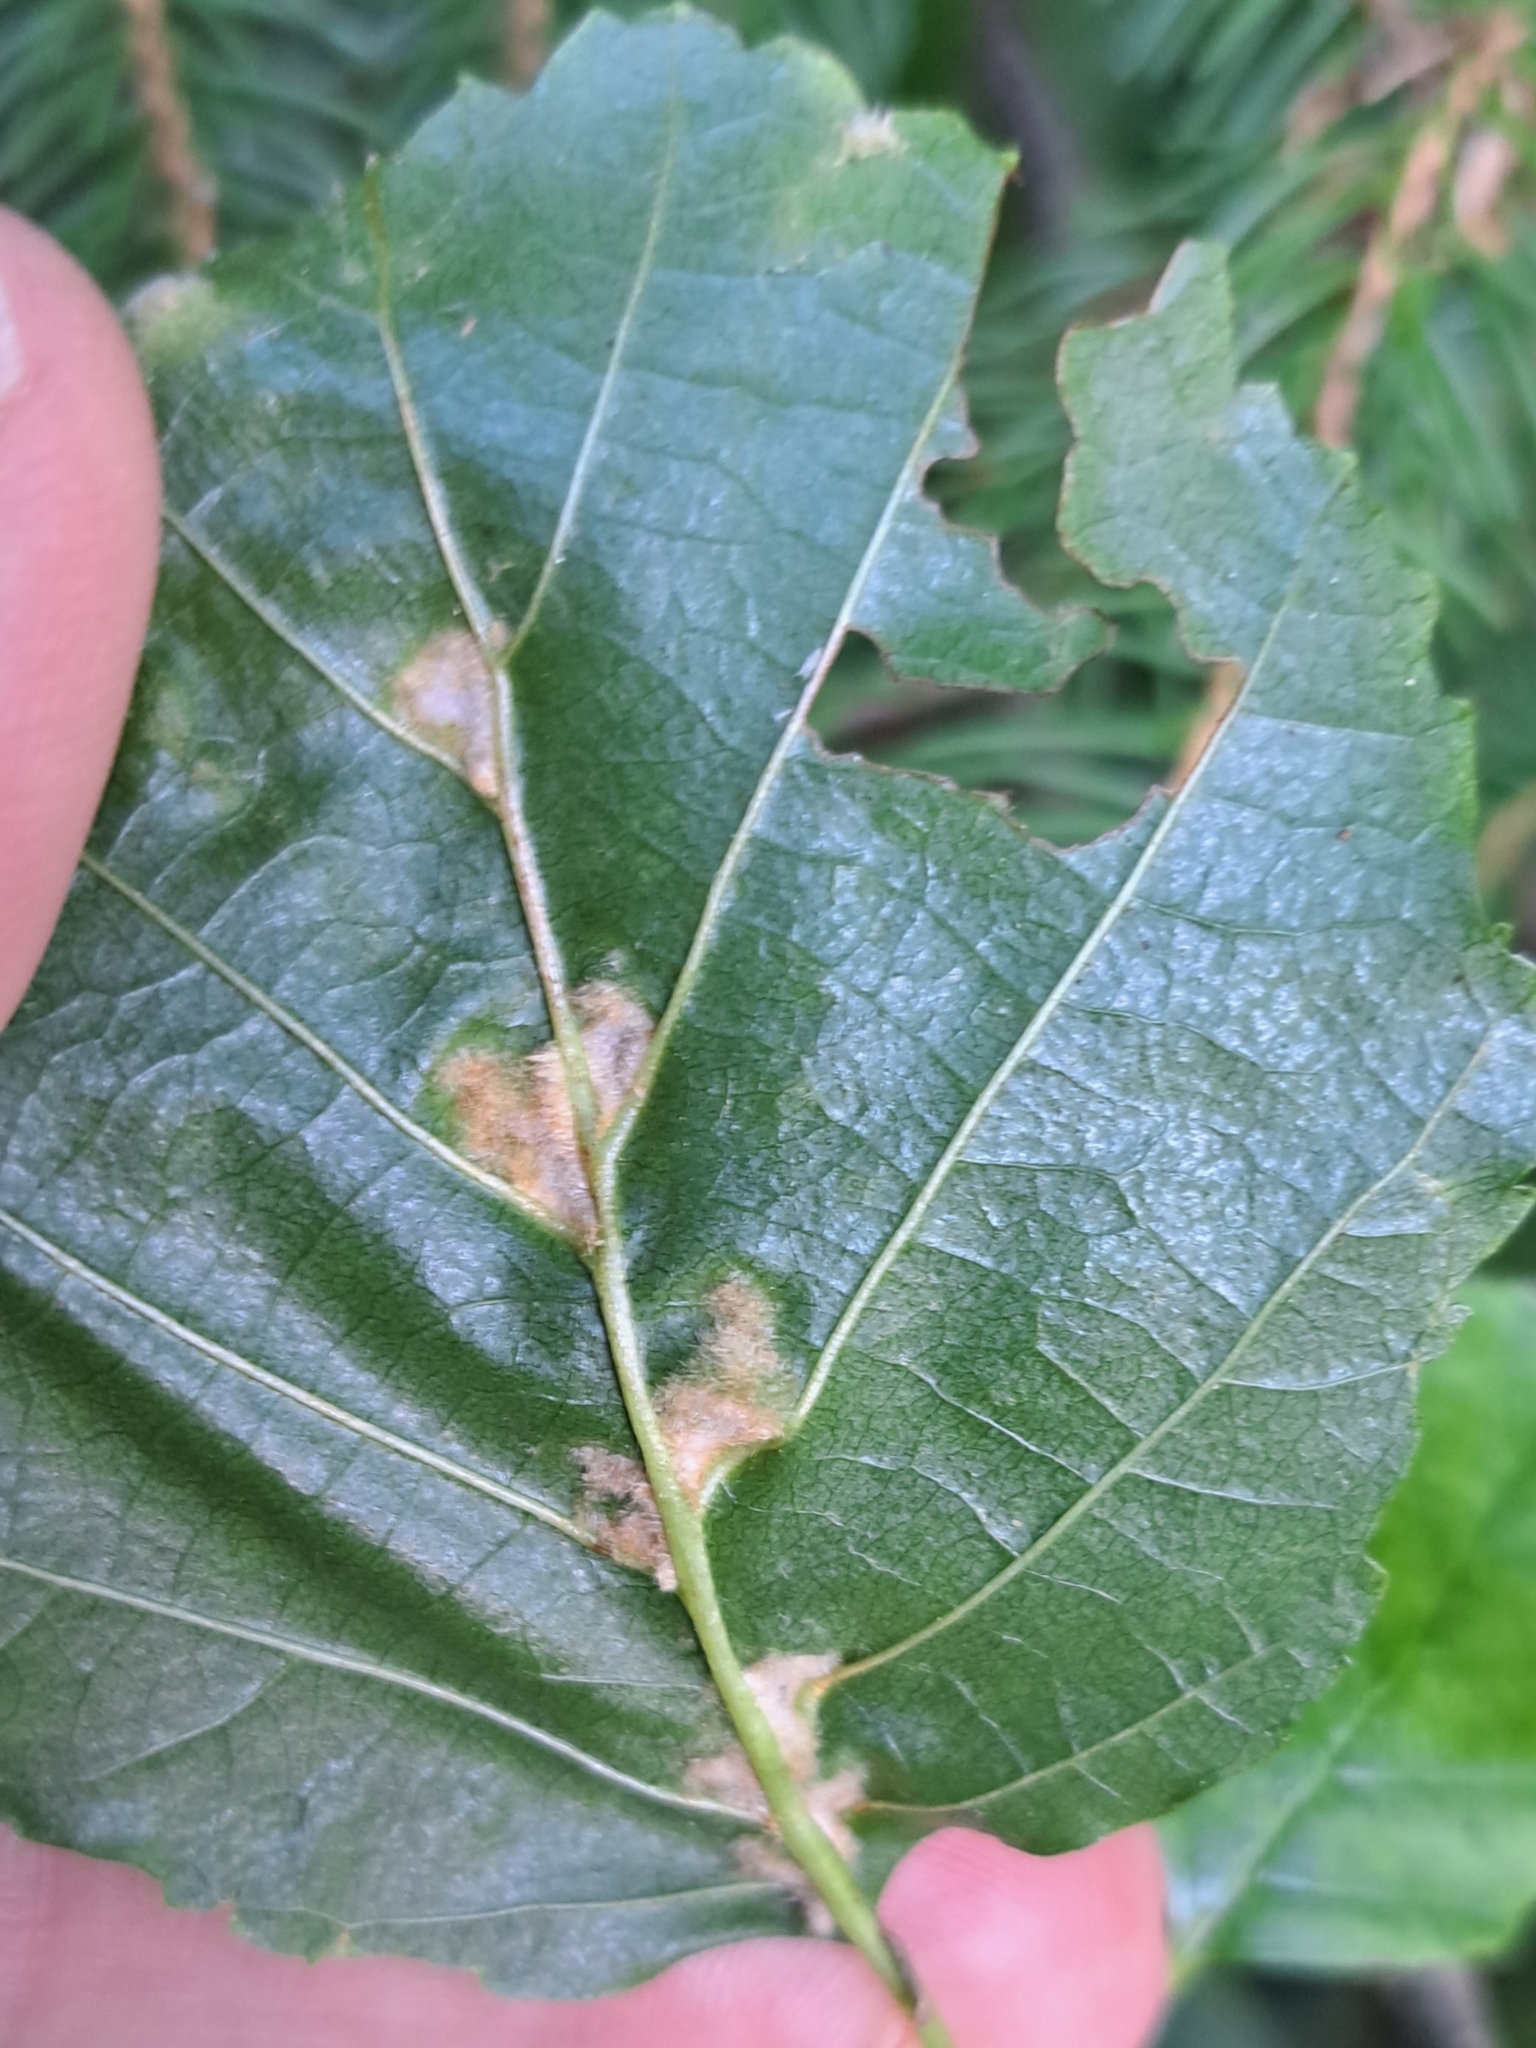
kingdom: Animalia
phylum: Arthropoda
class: Arachnida
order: Trombidiformes
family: Eriophyidae
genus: Eriophyes
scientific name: Eriophyes inangulis
